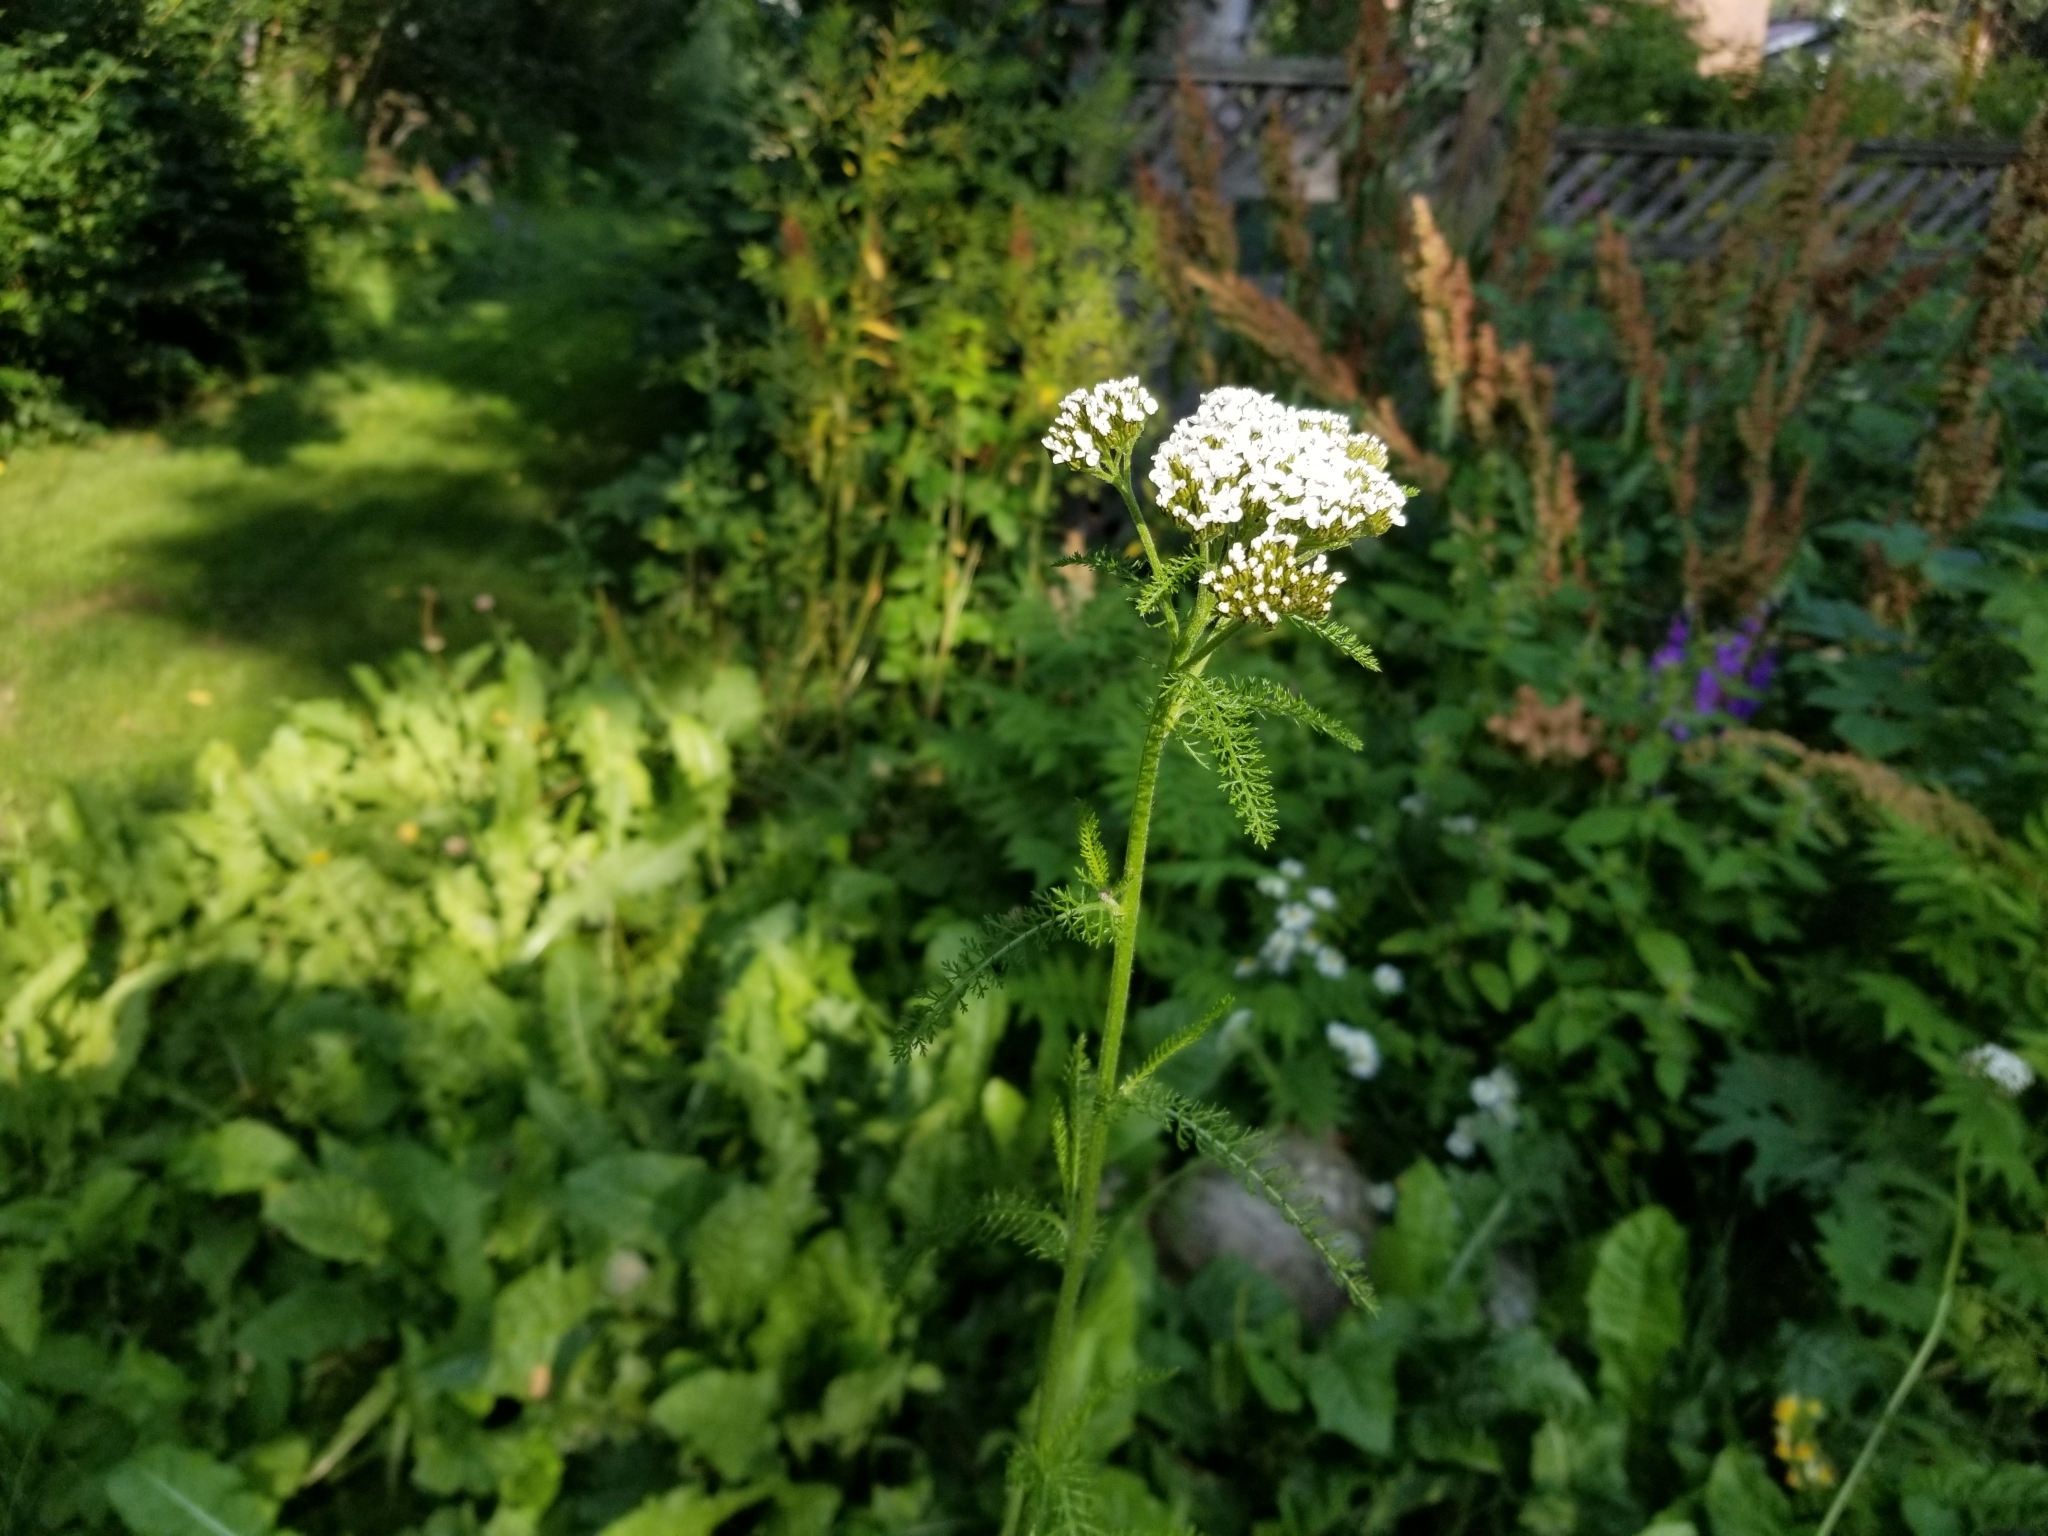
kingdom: Plantae
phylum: Tracheophyta
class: Magnoliopsida
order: Asterales
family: Asteraceae
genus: Achillea
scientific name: Achillea millefolium
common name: Yarrow
